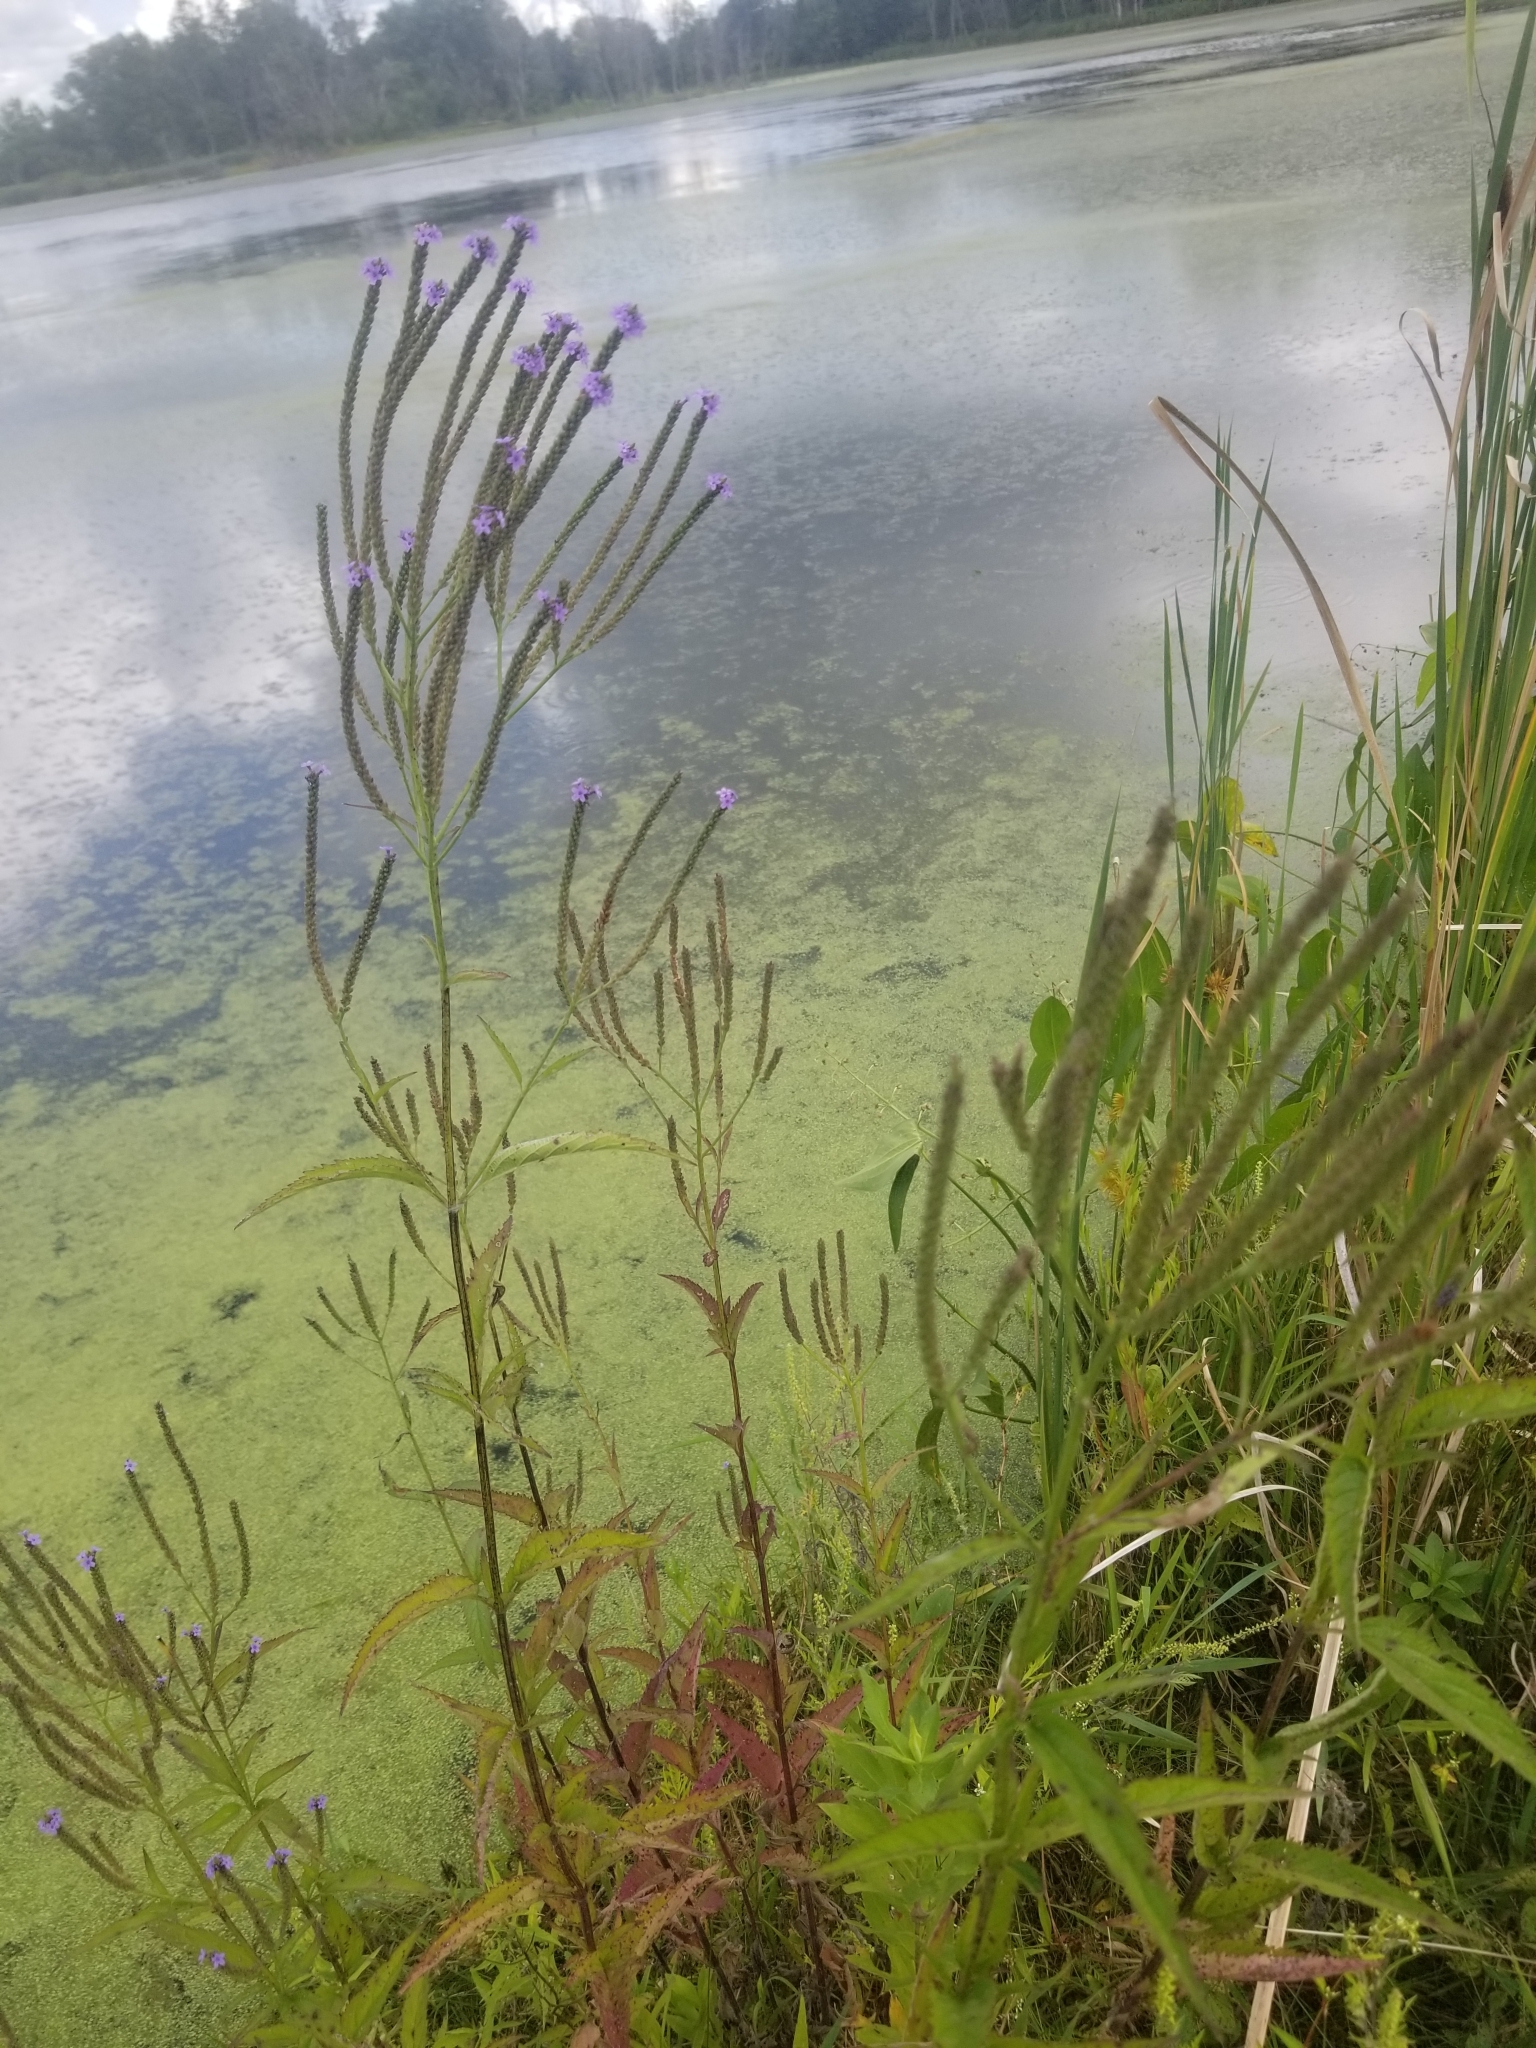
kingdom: Plantae
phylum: Tracheophyta
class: Magnoliopsida
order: Lamiales
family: Verbenaceae
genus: Verbena
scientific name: Verbena hastata
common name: American blue vervain
